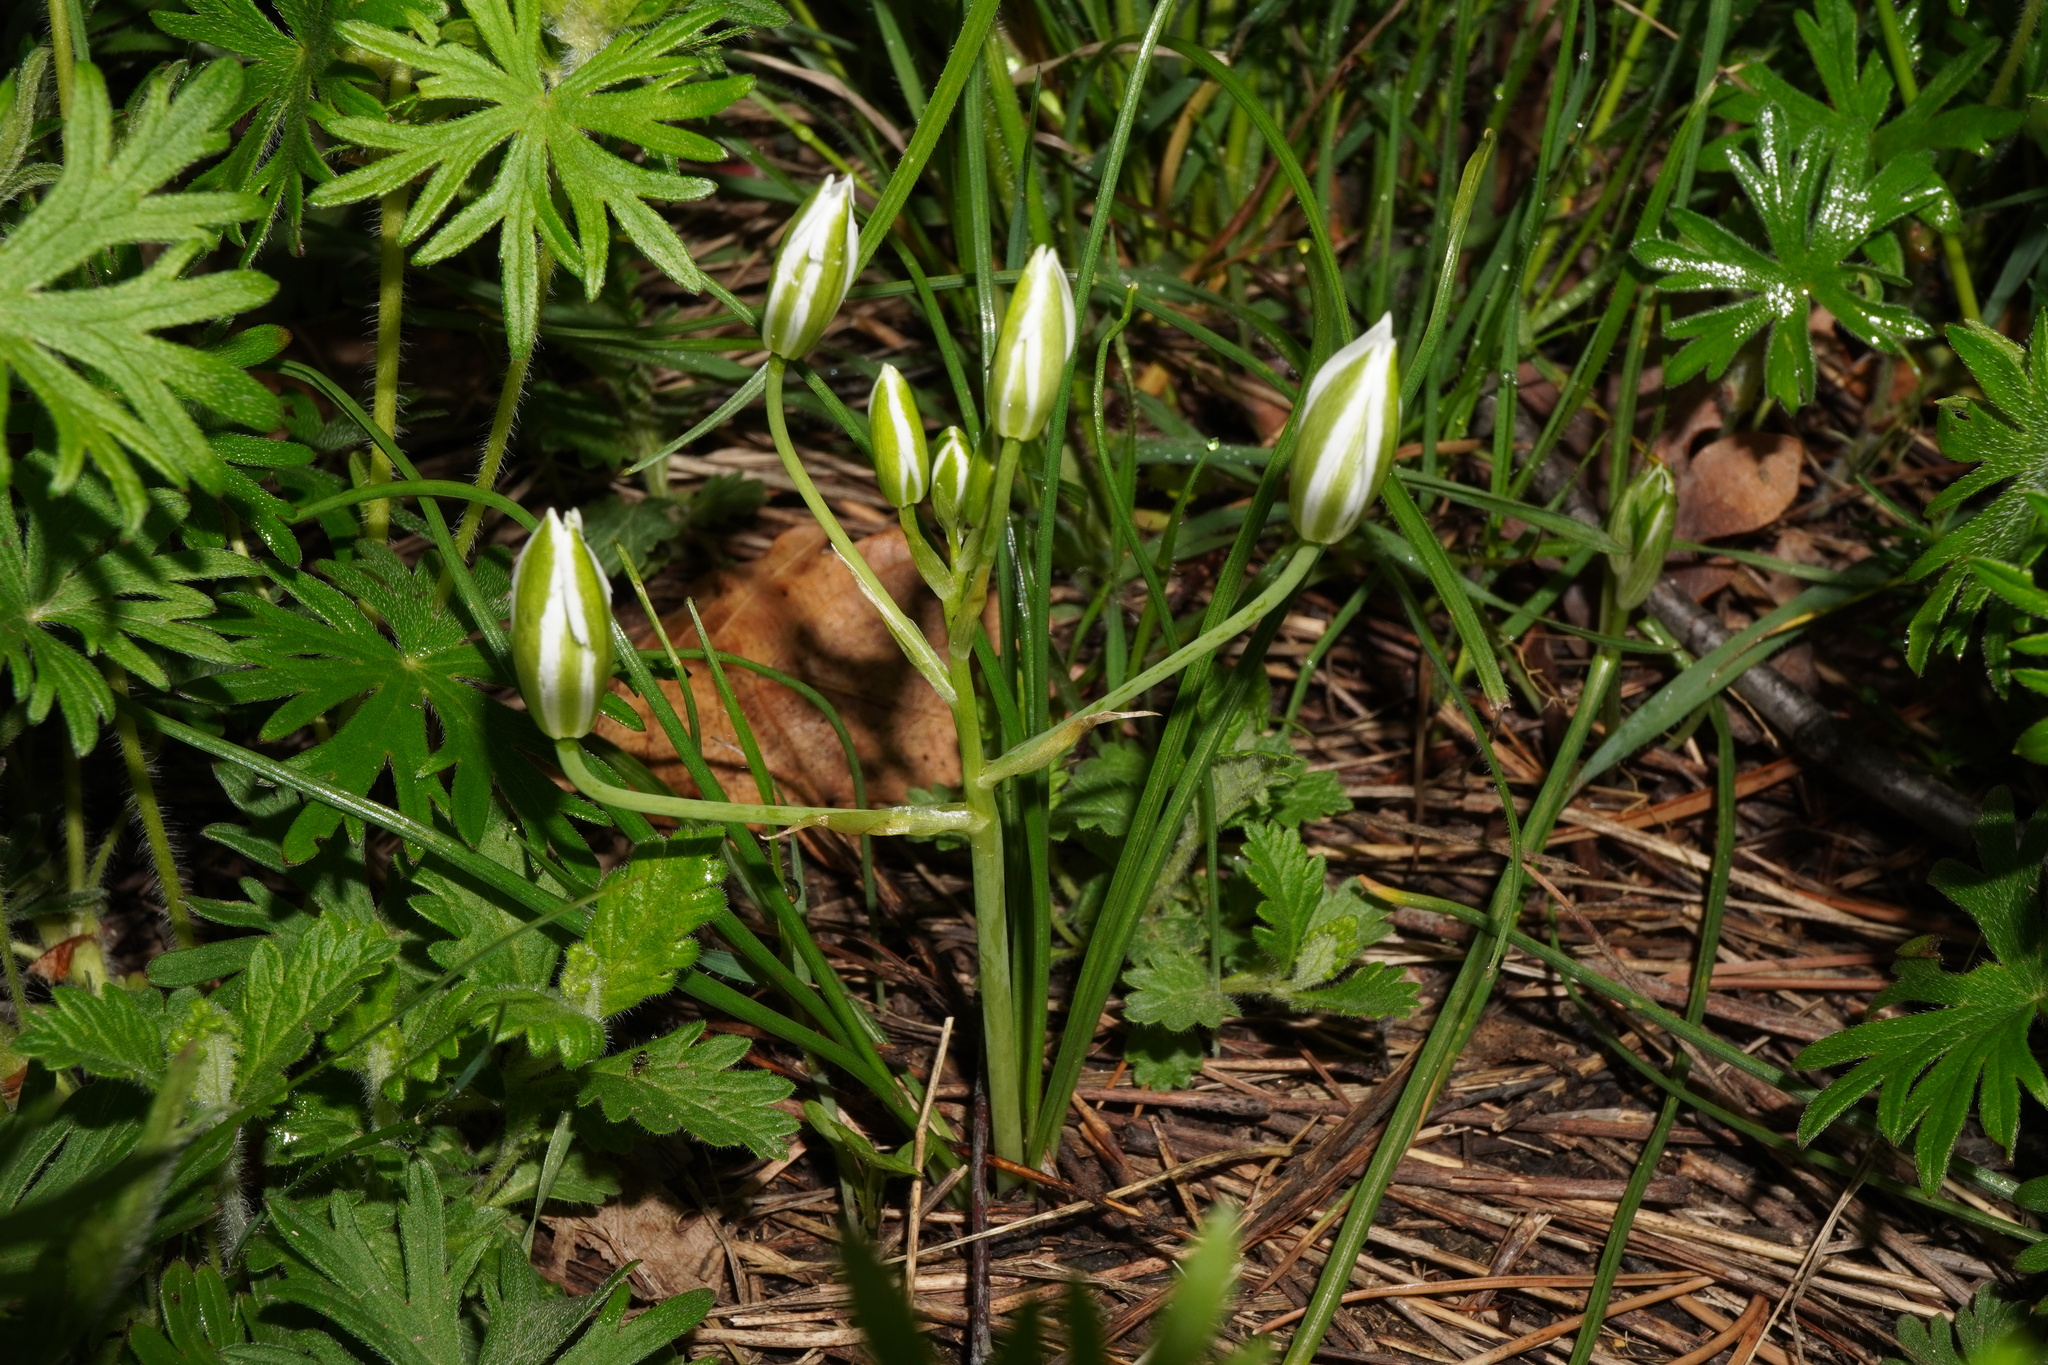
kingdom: Plantae
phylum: Tracheophyta
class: Liliopsida
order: Asparagales
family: Asparagaceae
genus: Ornithogalum
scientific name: Ornithogalum orthophyllum
